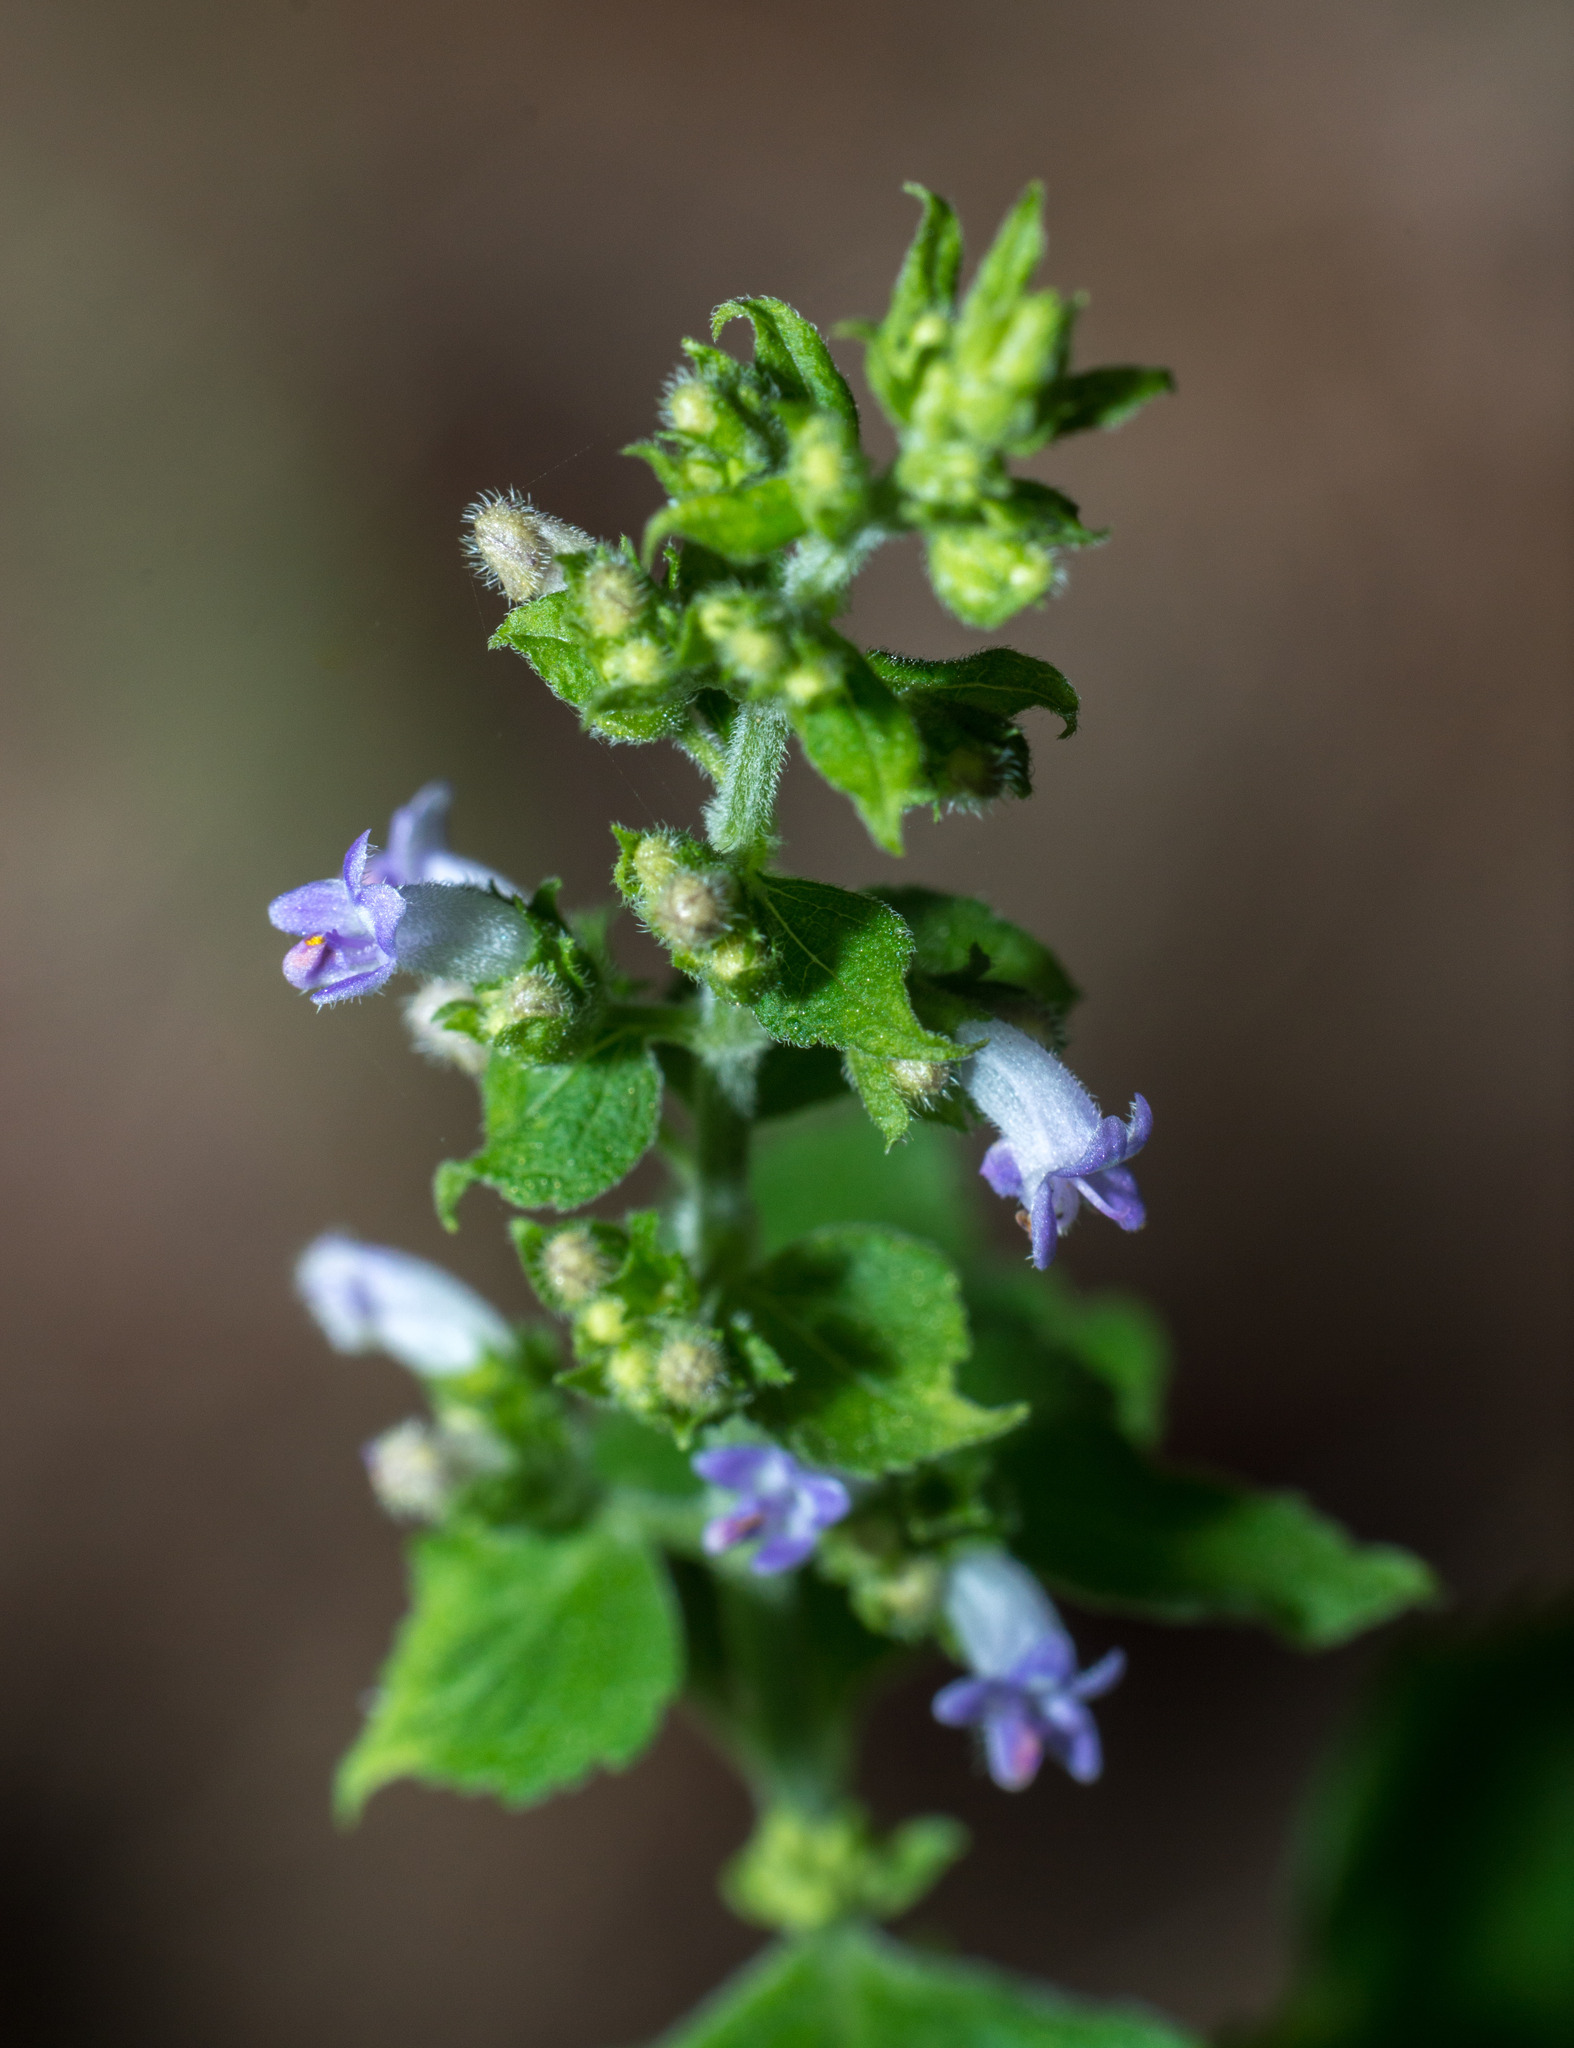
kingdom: Plantae
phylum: Tracheophyta
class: Magnoliopsida
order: Lamiales
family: Lamiaceae
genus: Cantinoa
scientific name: Cantinoa mutabilis
